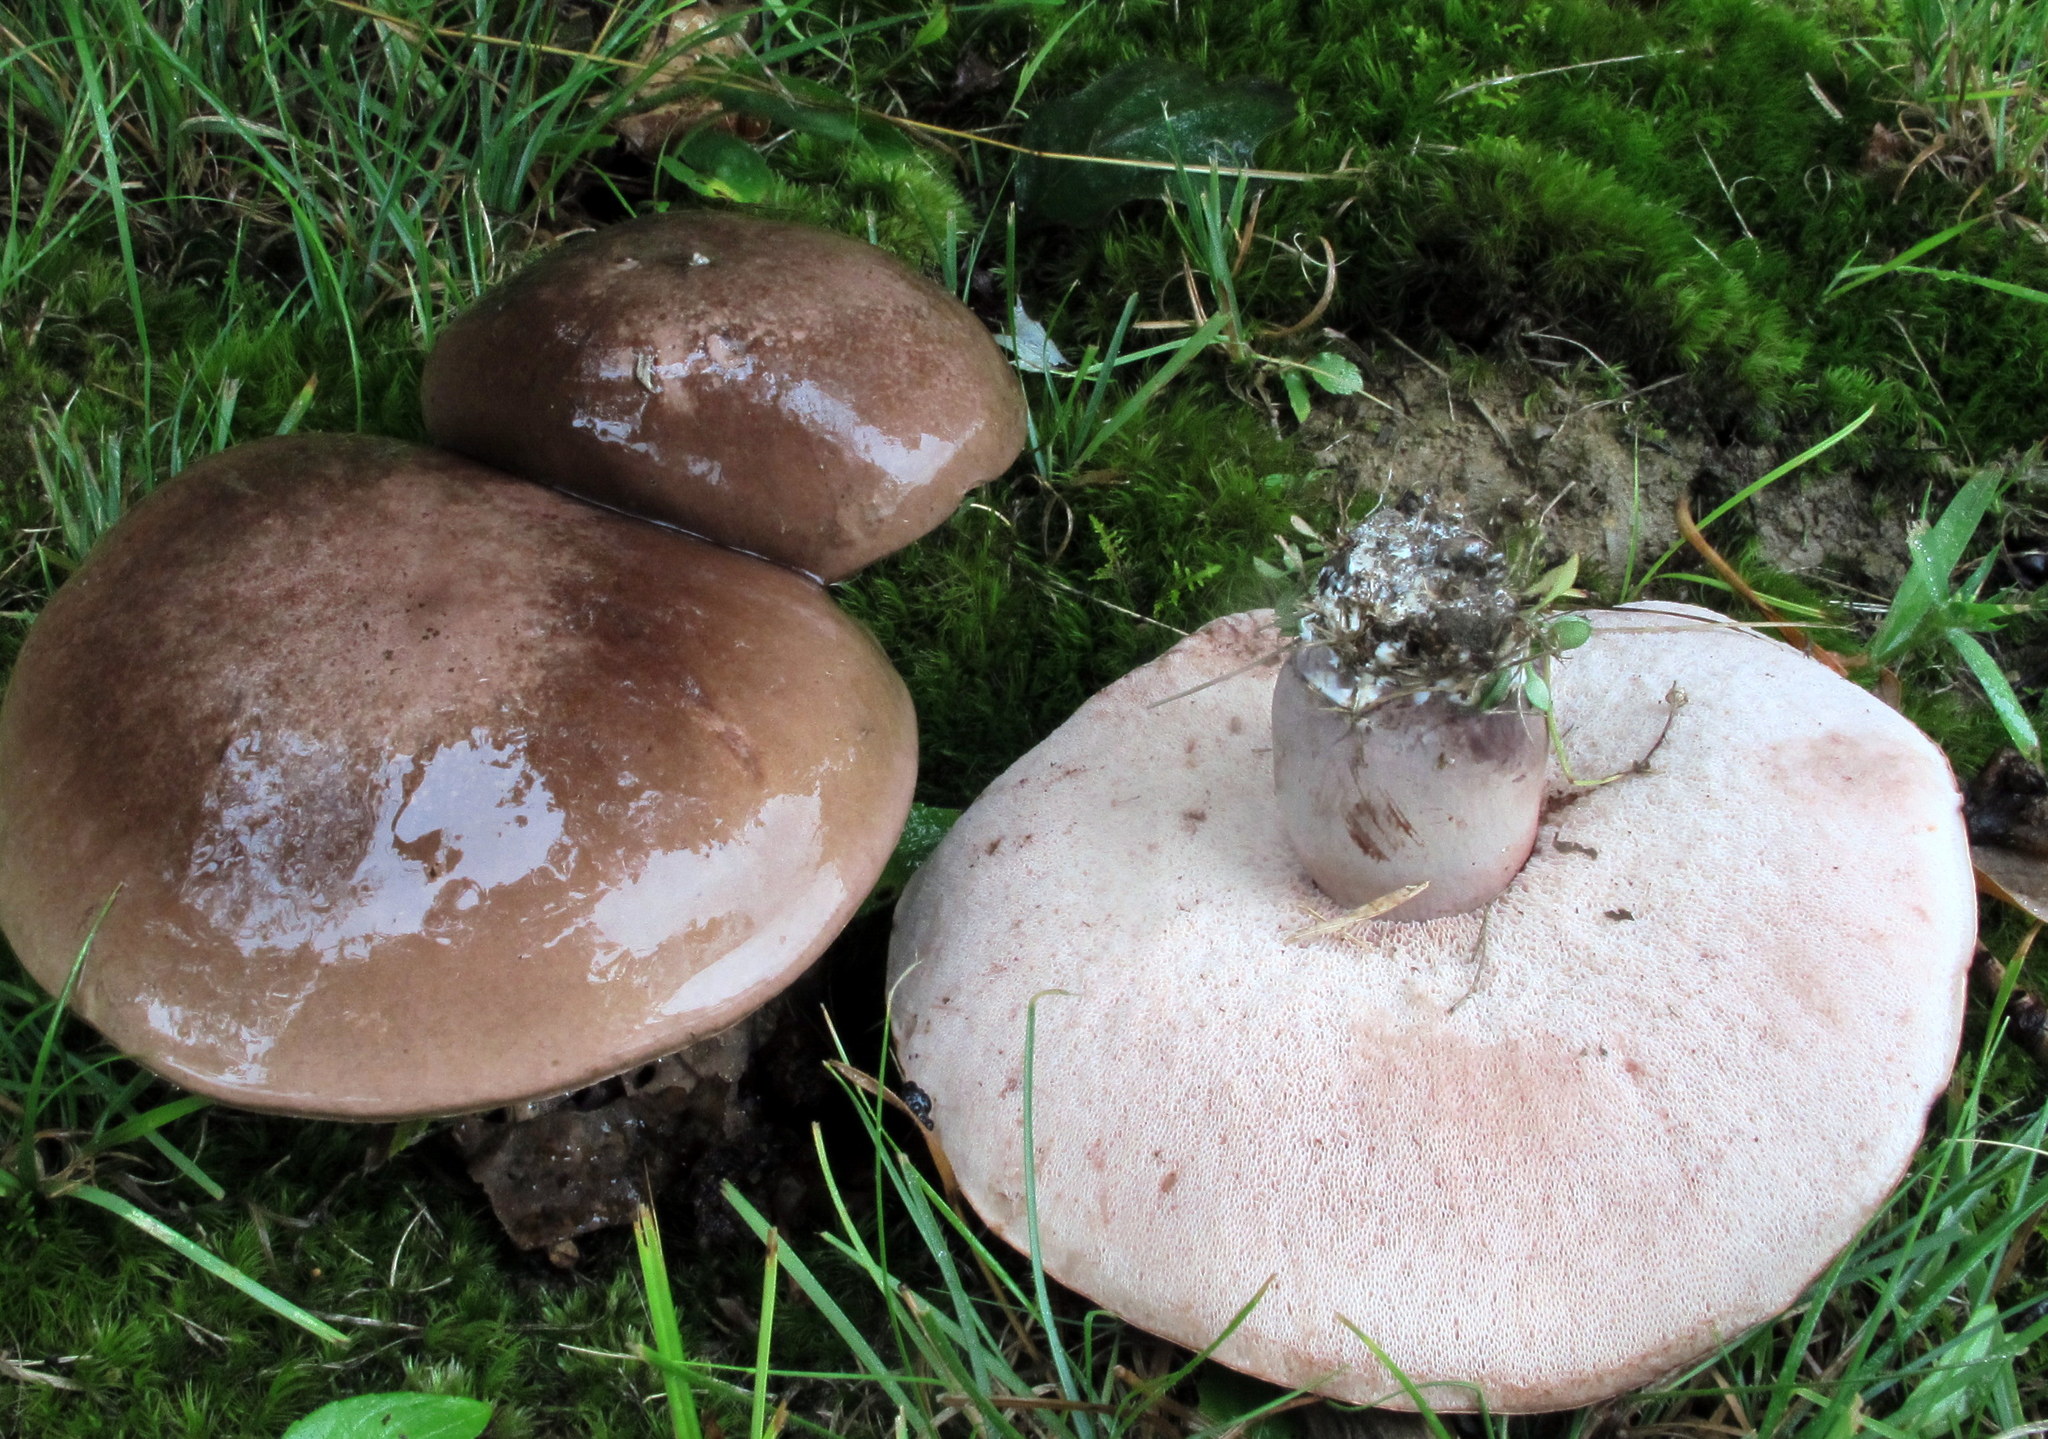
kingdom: Fungi
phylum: Basidiomycota
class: Agaricomycetes
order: Boletales
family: Boletaceae
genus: Tylopilus
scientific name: Tylopilus plumbeoviolaceus
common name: Violet gray bolete
